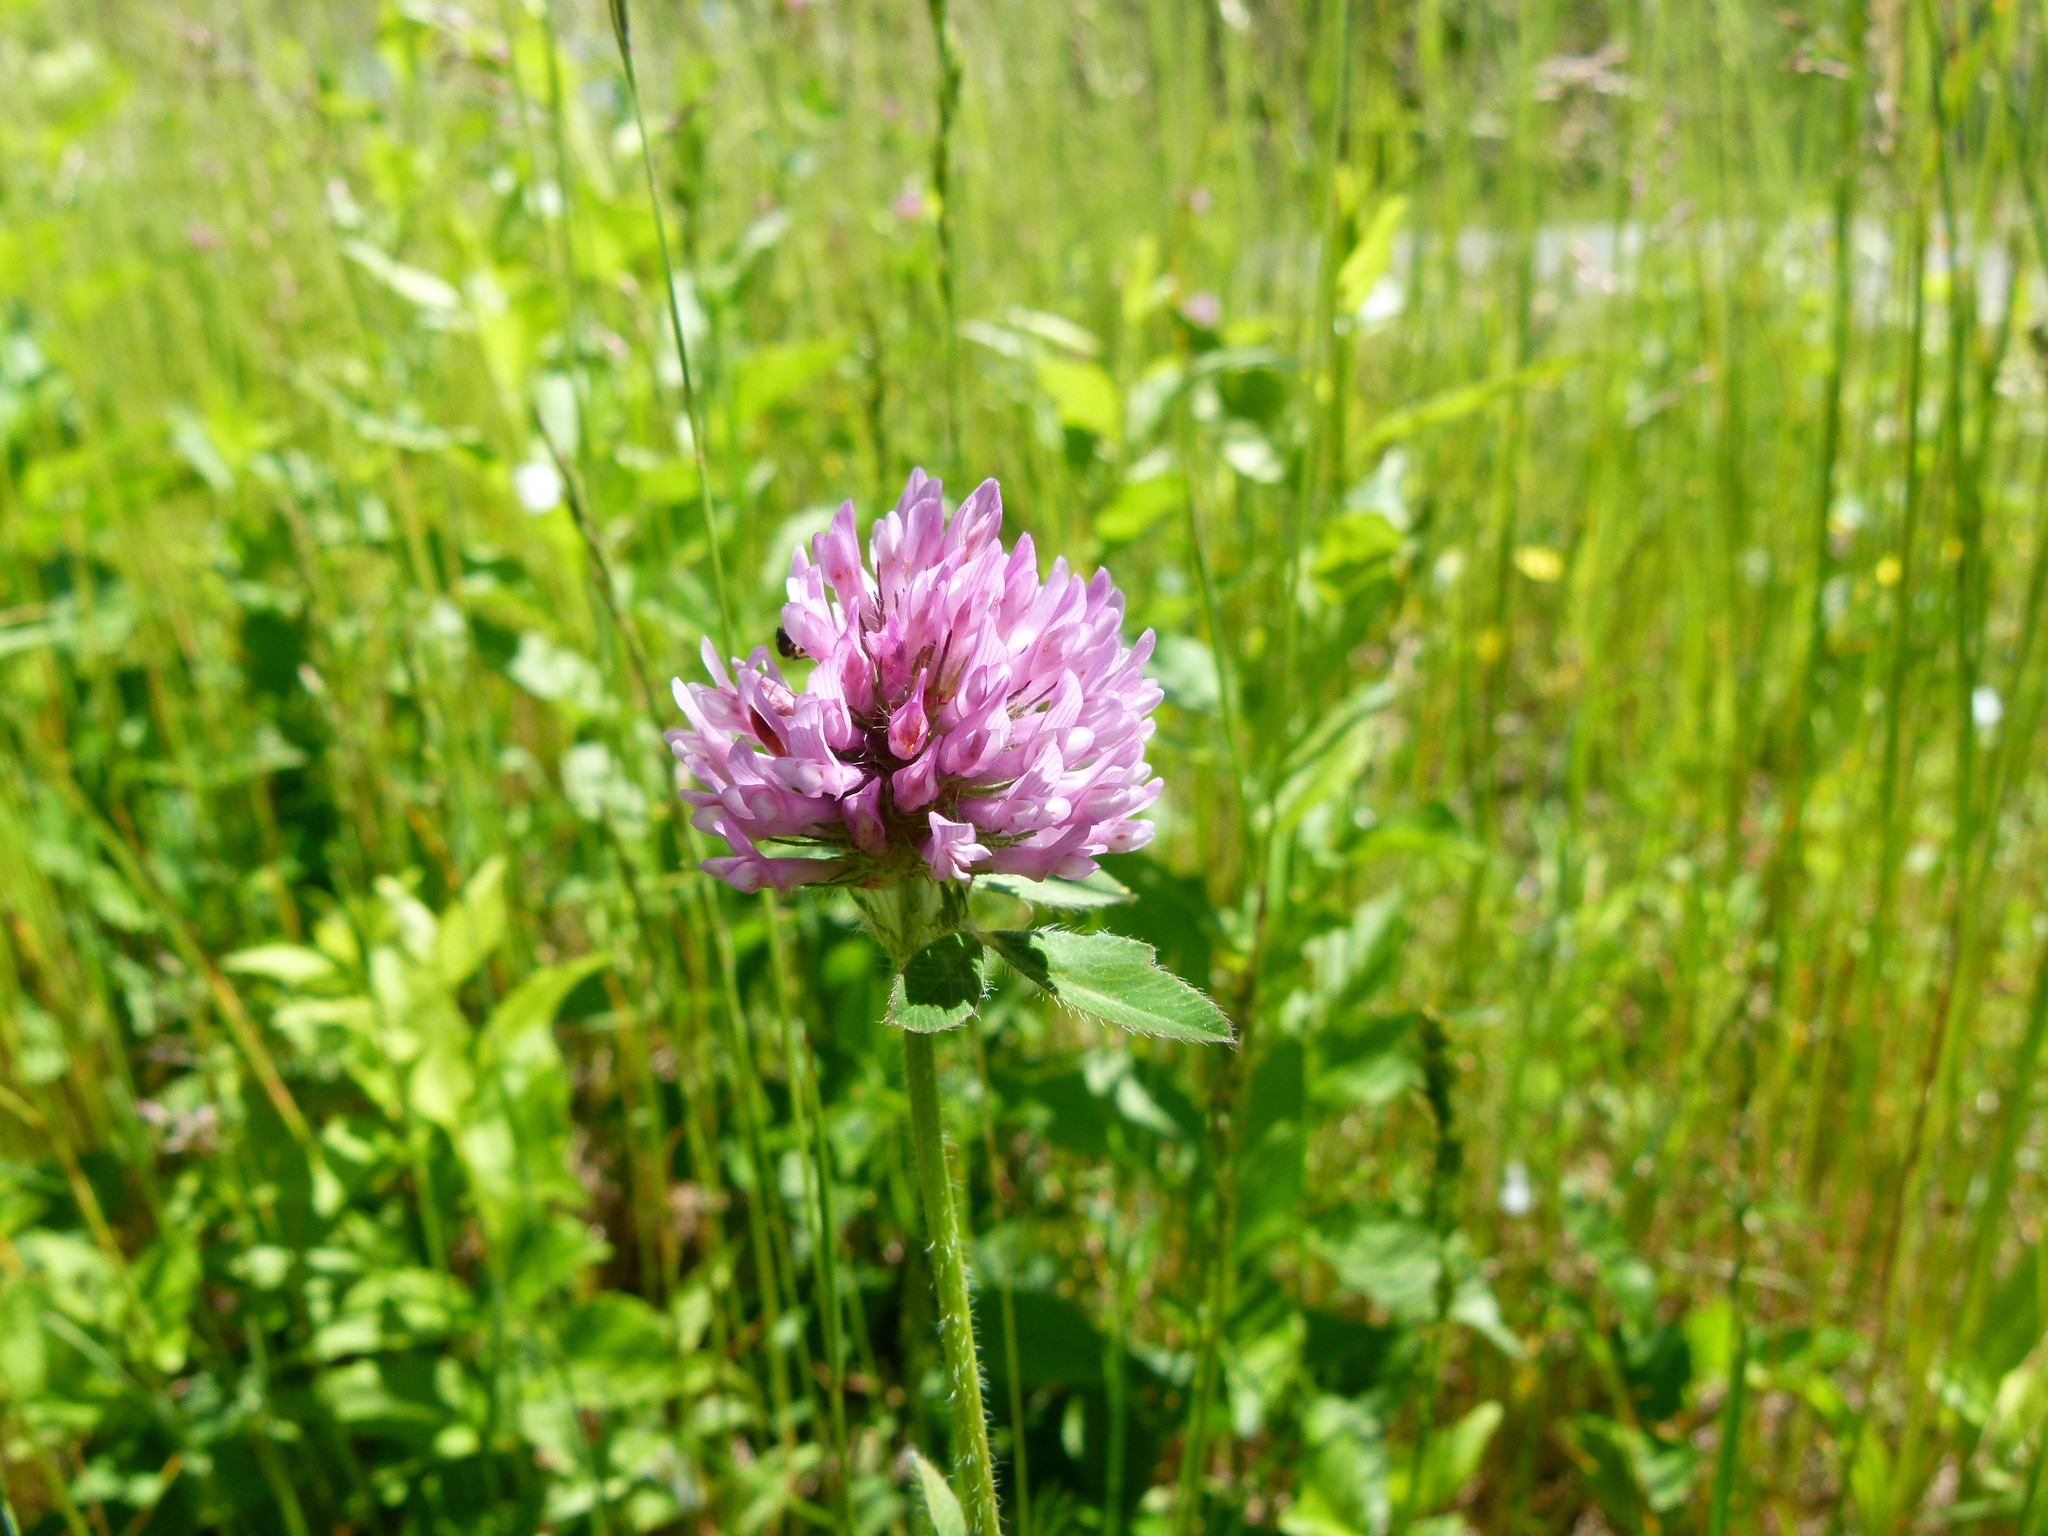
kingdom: Plantae
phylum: Tracheophyta
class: Magnoliopsida
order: Fabales
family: Fabaceae
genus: Trifolium
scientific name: Trifolium pratense
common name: Red clover
